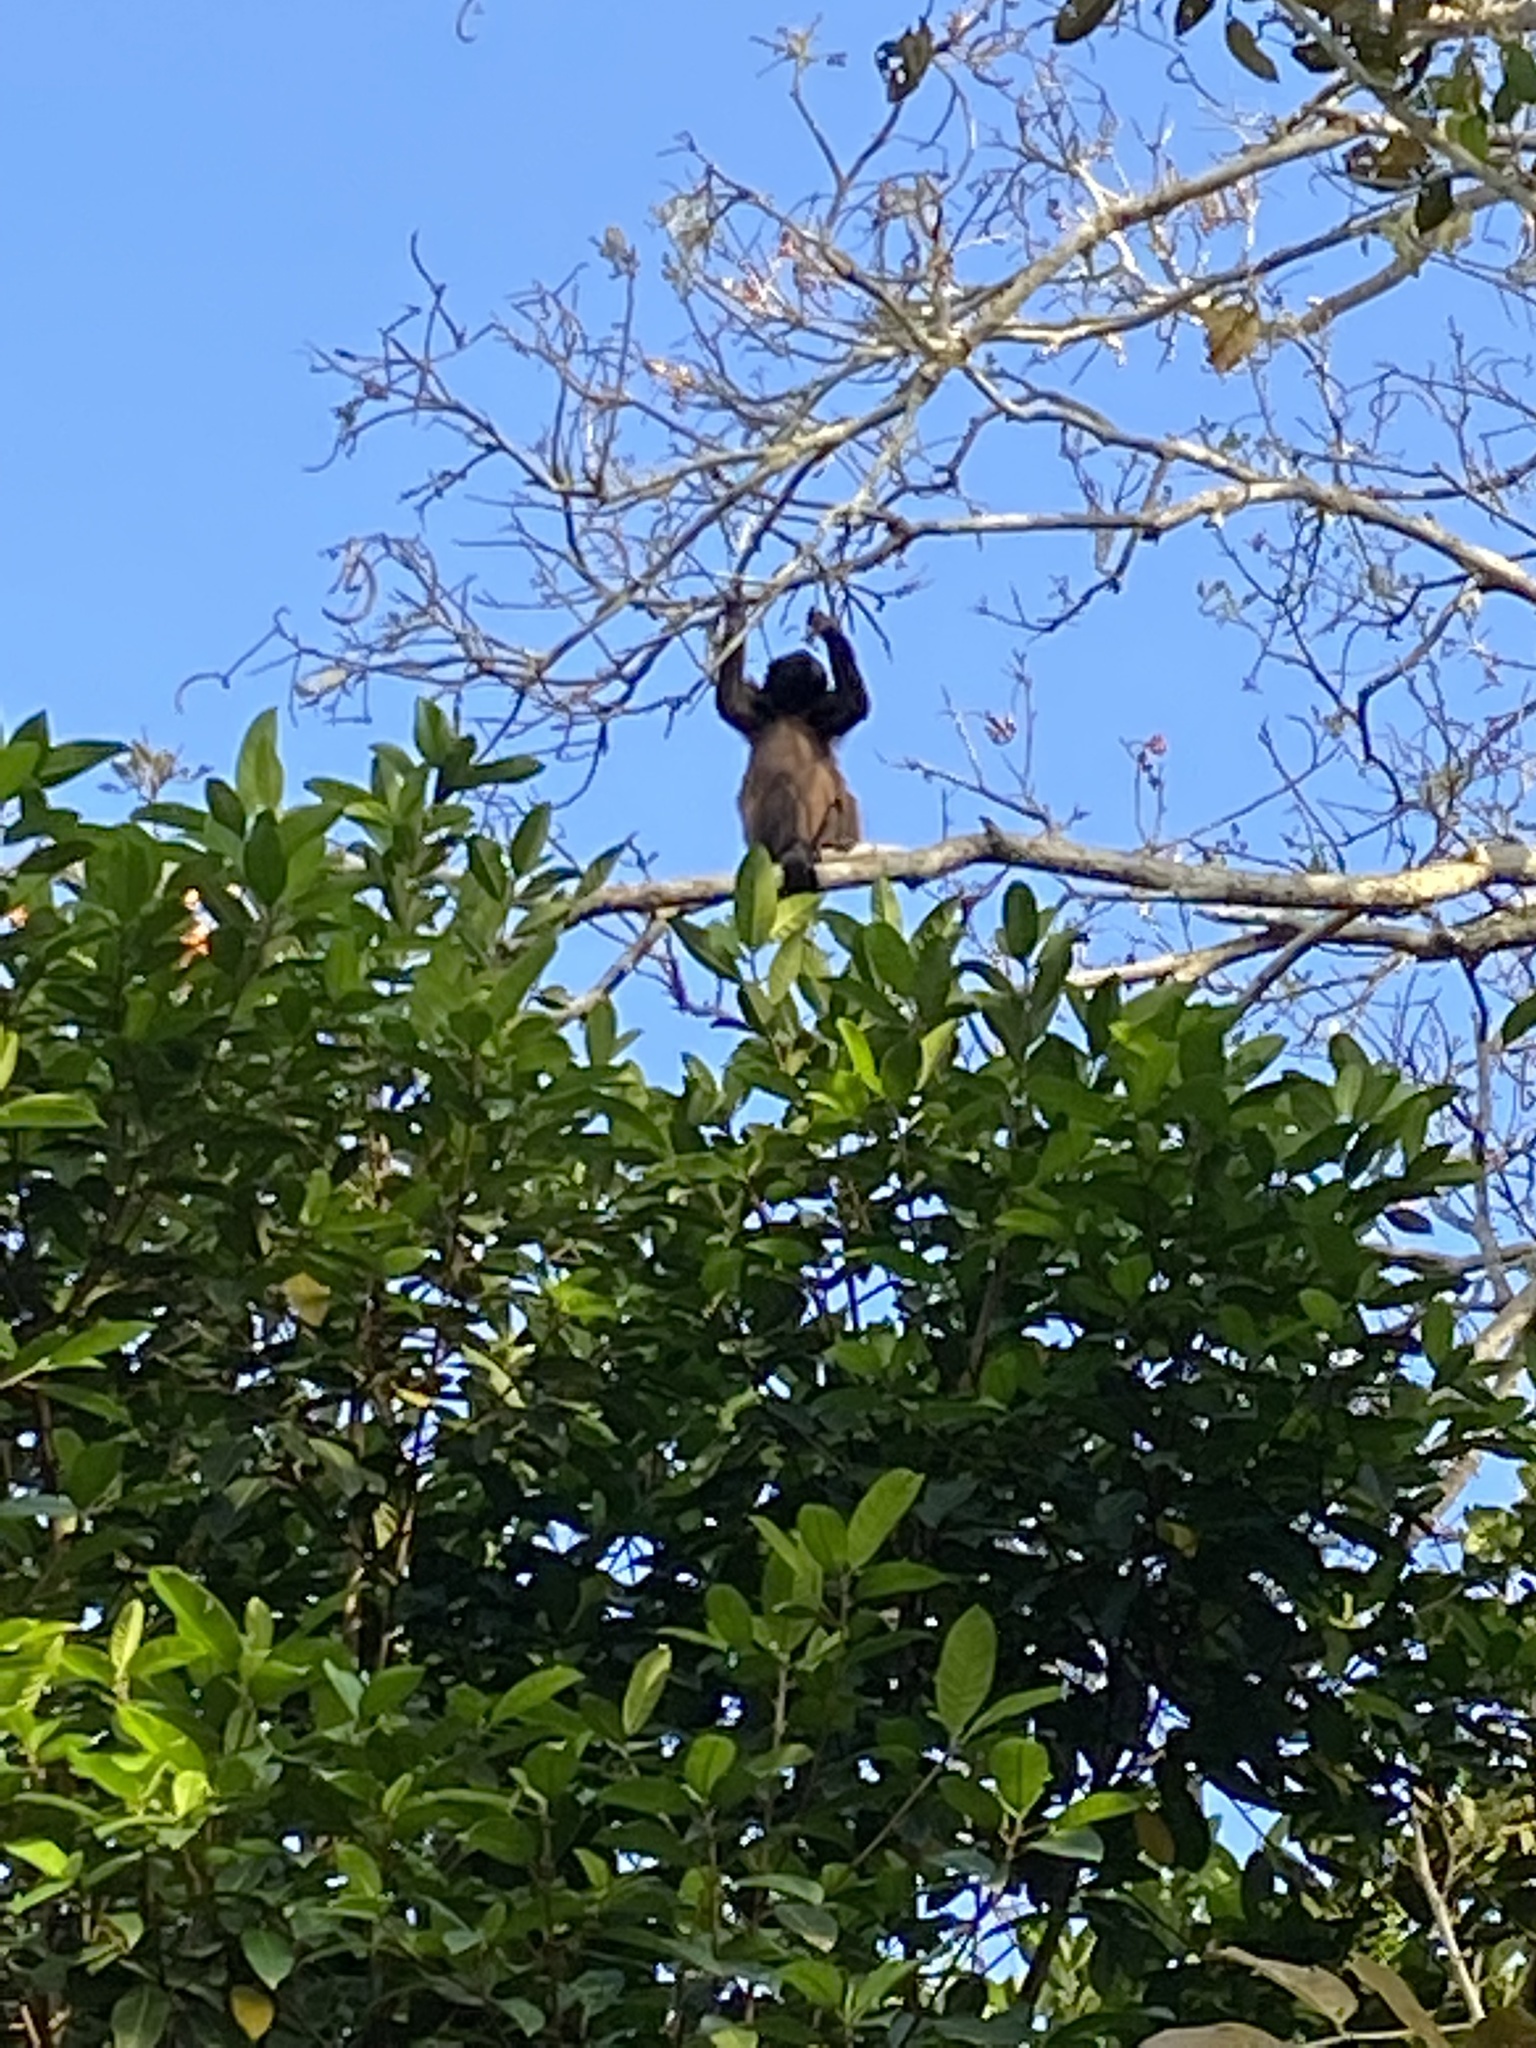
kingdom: Animalia
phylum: Chordata
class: Mammalia
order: Primates
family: Atelidae
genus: Alouatta
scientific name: Alouatta palliata
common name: Mantled howler
